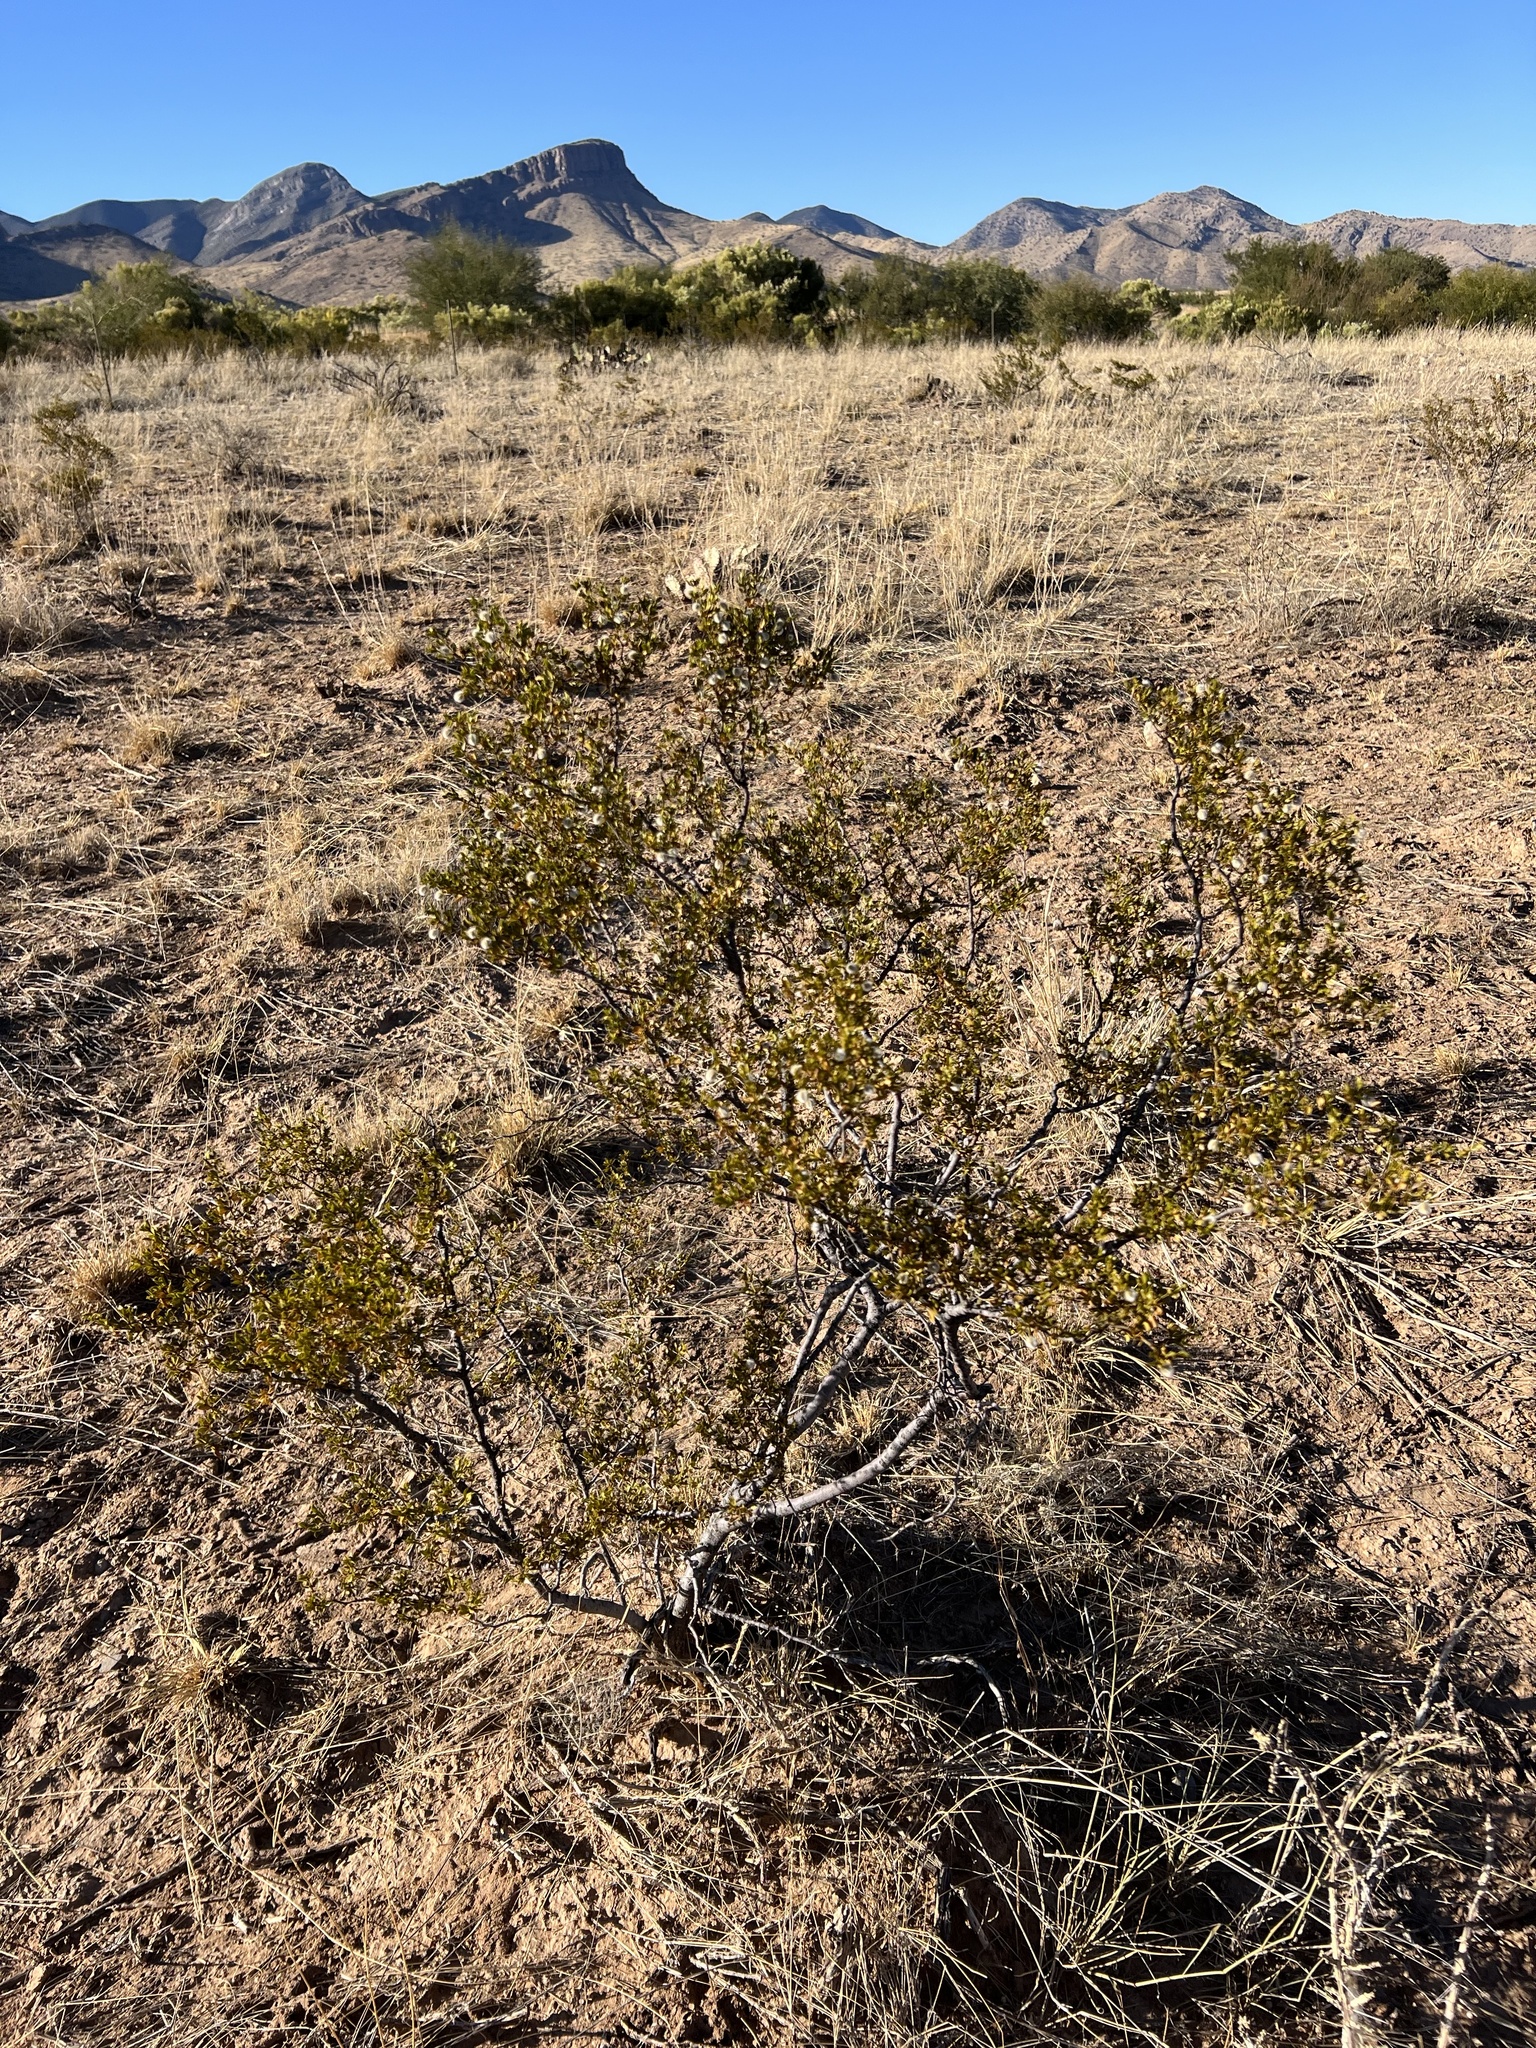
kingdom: Plantae
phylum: Tracheophyta
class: Magnoliopsida
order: Zygophyllales
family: Zygophyllaceae
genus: Larrea
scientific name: Larrea tridentata
